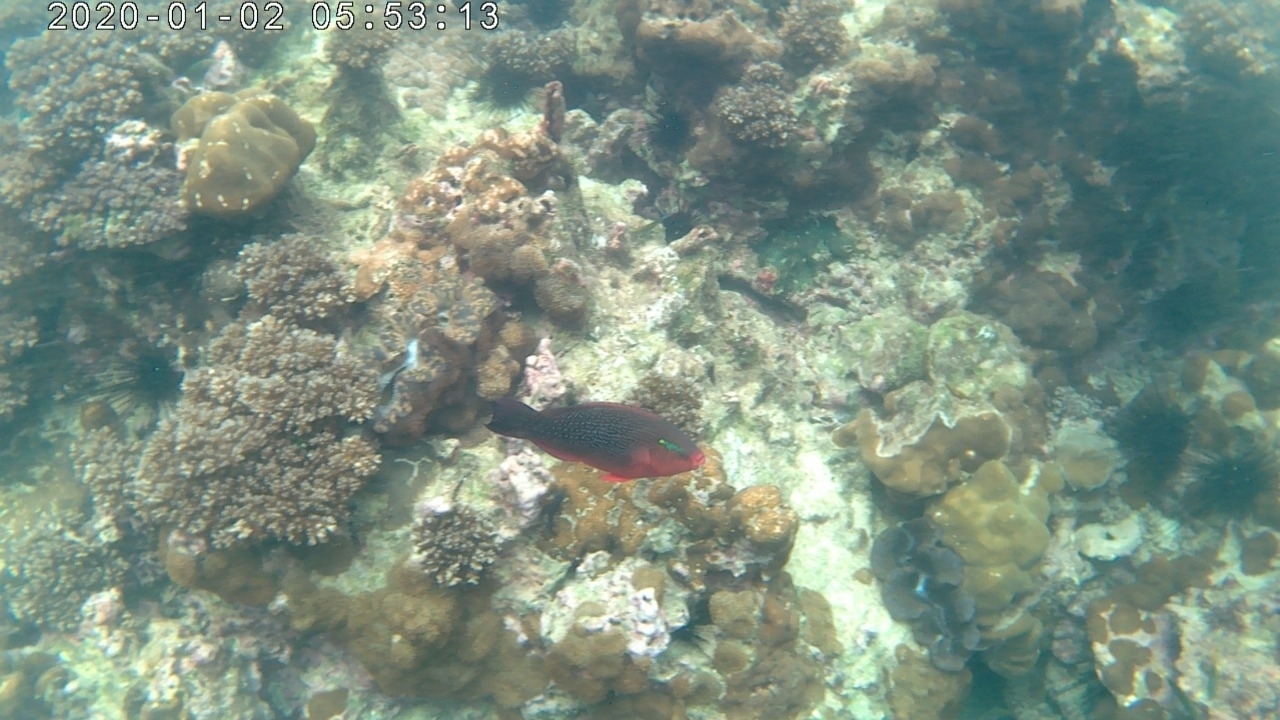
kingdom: Animalia
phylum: Chordata
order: Perciformes
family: Scaridae
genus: Scarus
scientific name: Scarus niger
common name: Dusky parrotfish
